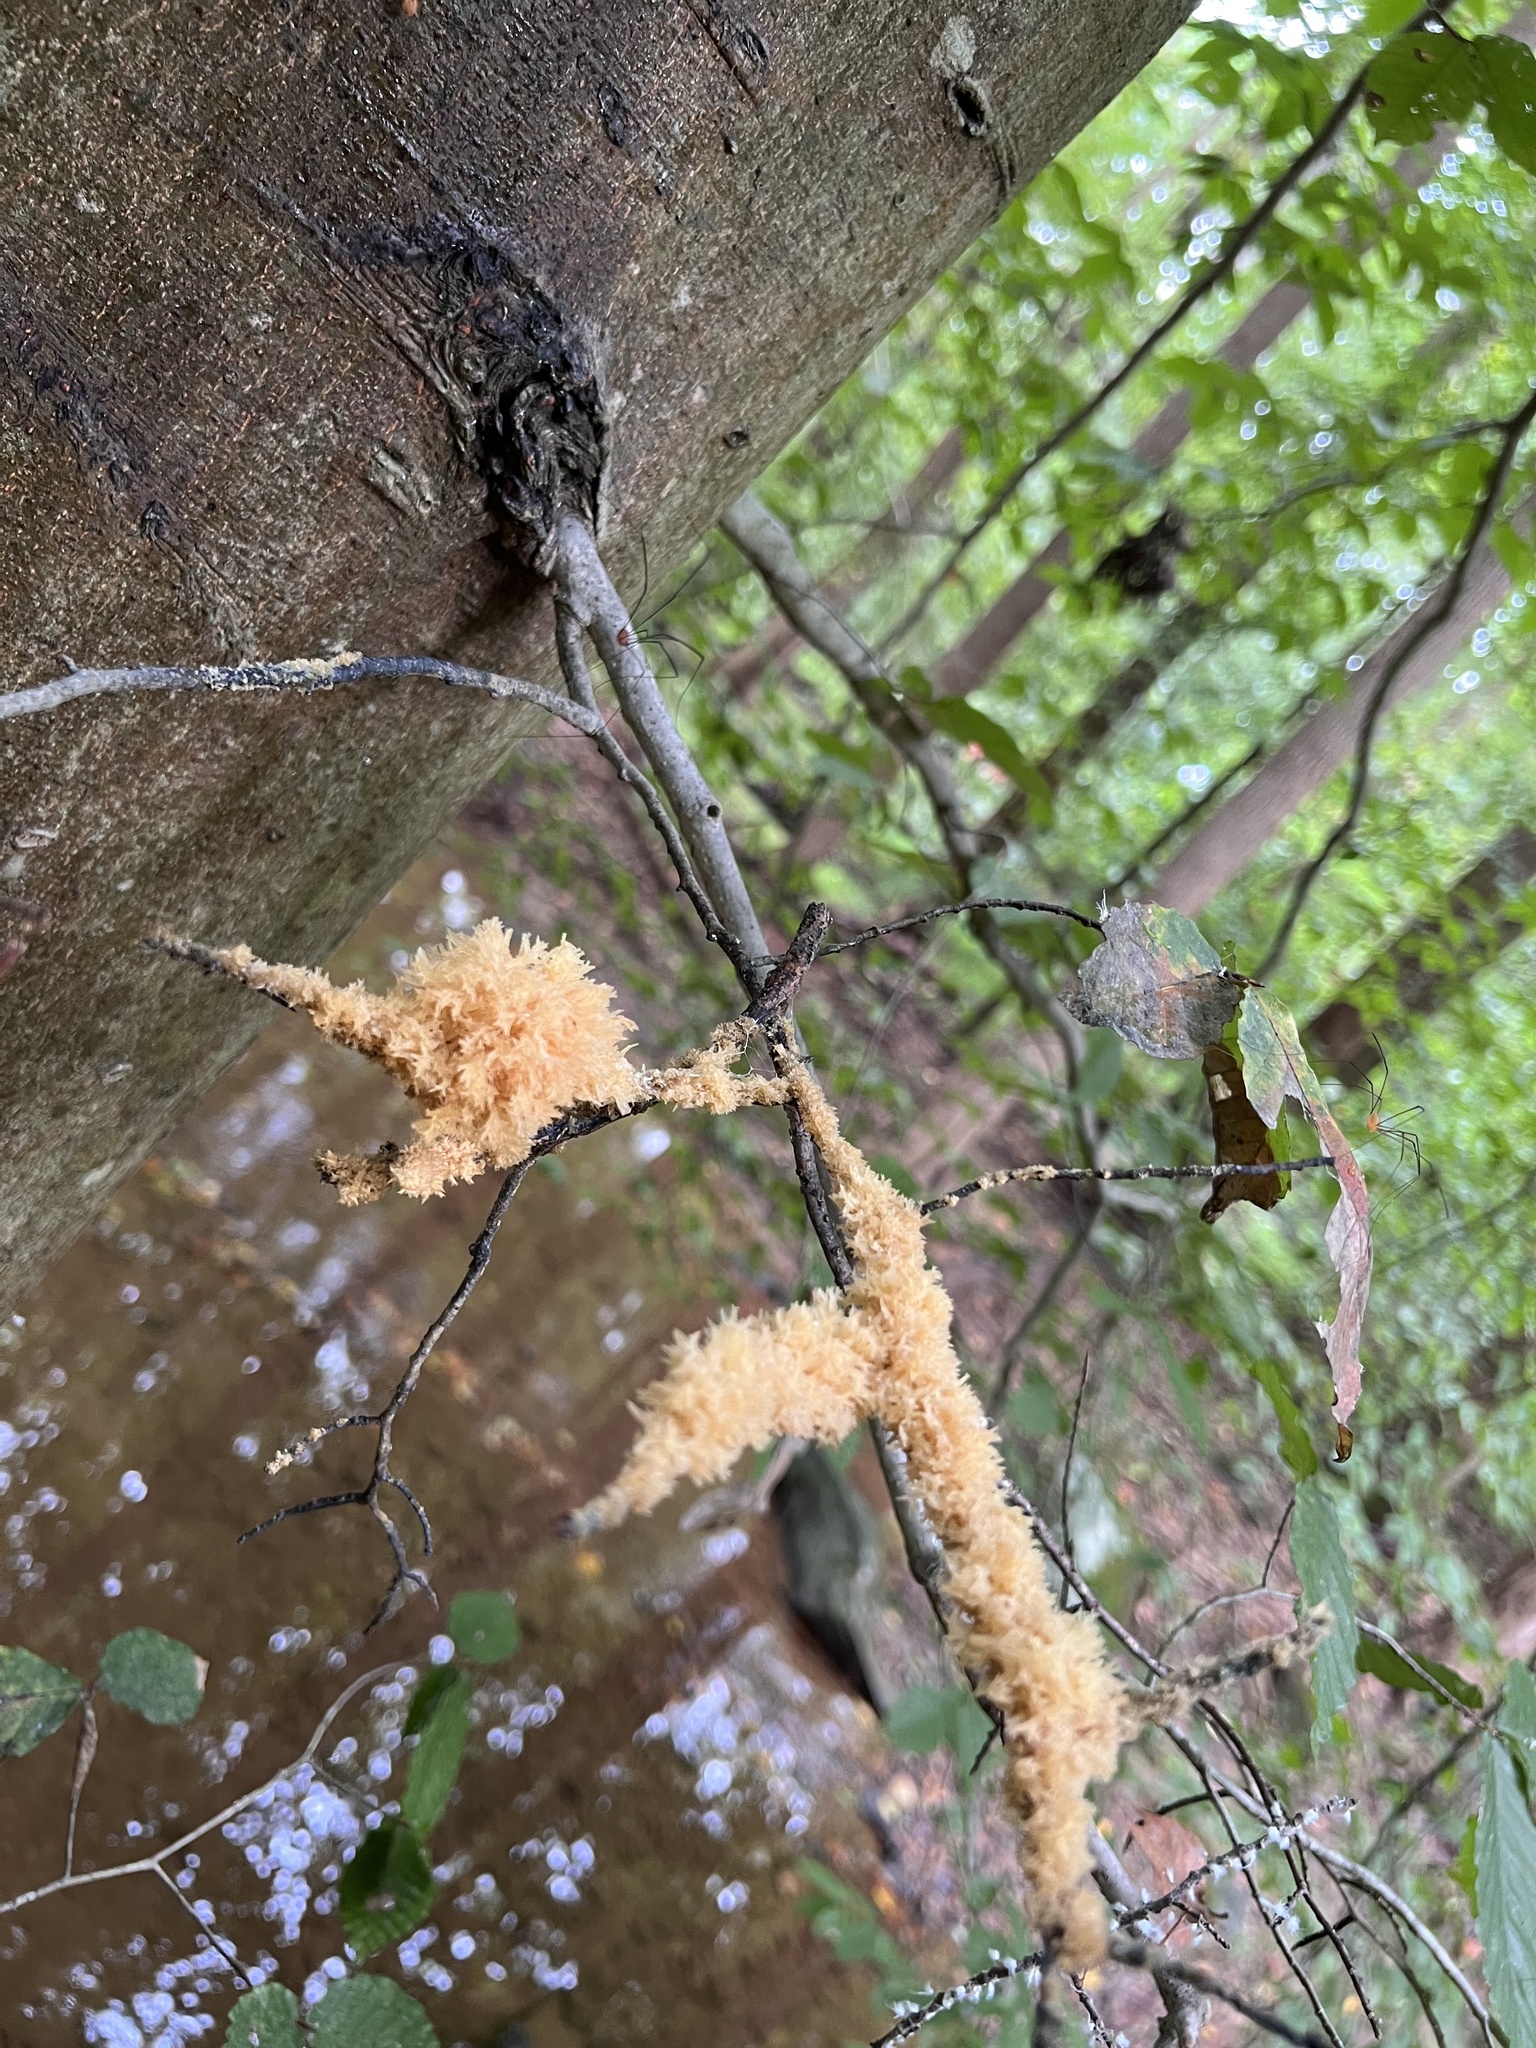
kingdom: Fungi
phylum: Ascomycota
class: Dothideomycetes
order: Capnodiales
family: Capnodiaceae
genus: Scorias
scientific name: Scorias spongiosa
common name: Black sooty mold
